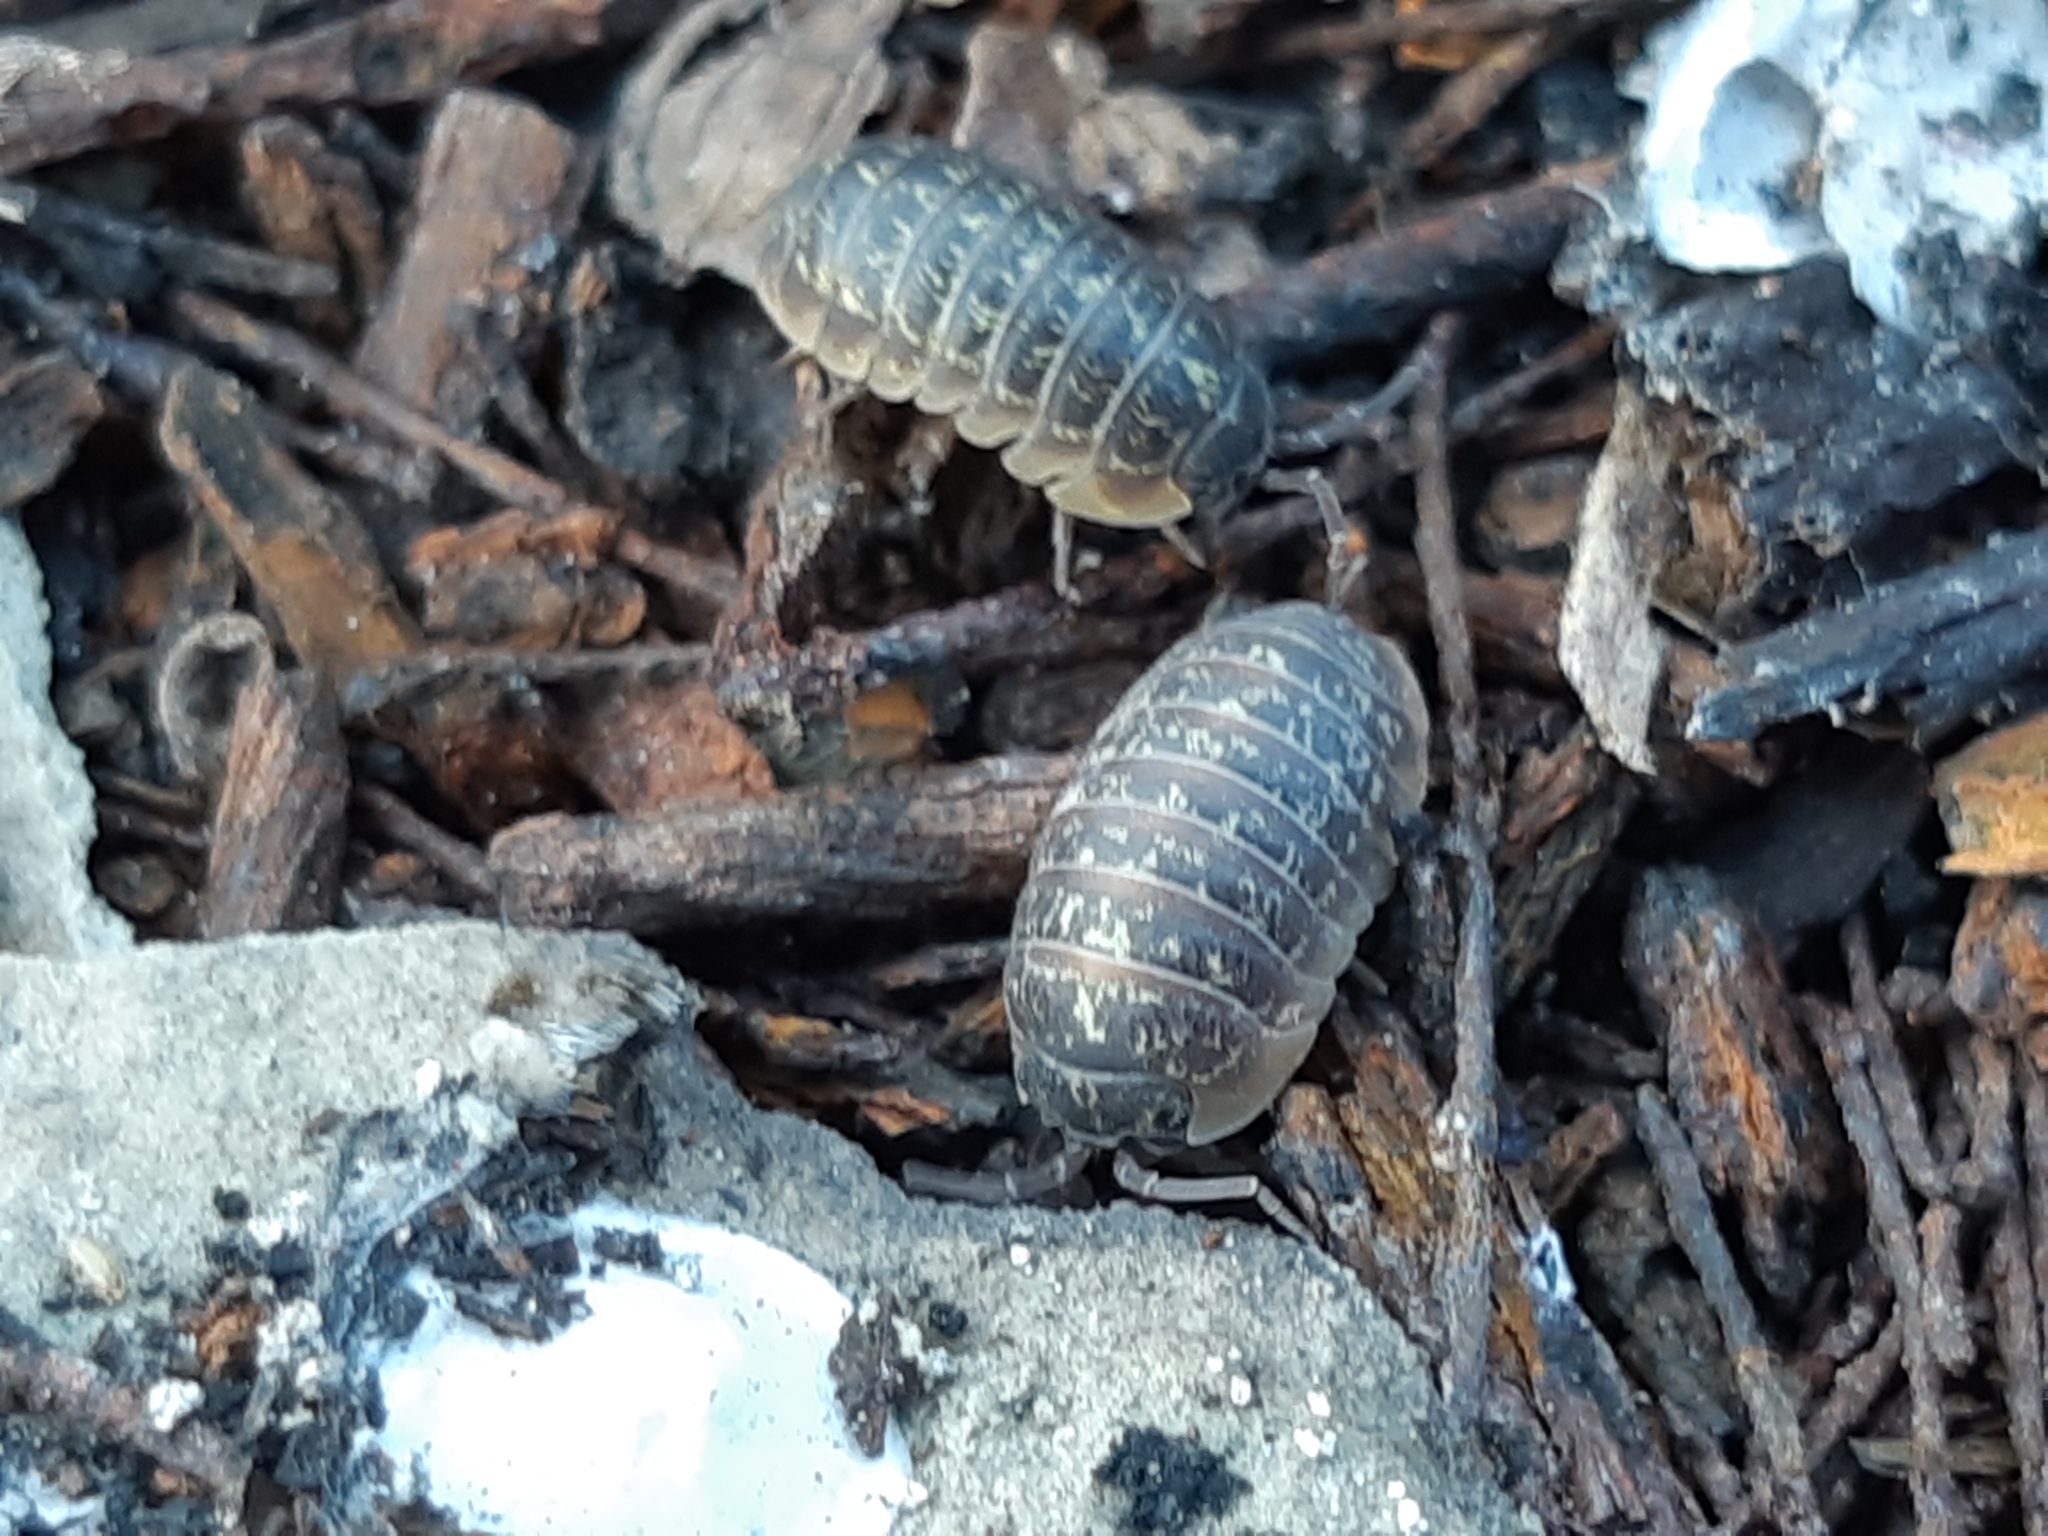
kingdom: Animalia
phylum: Arthropoda
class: Malacostraca
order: Isopoda
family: Armadillidiidae
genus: Armadillidium
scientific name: Armadillidium versicolor
